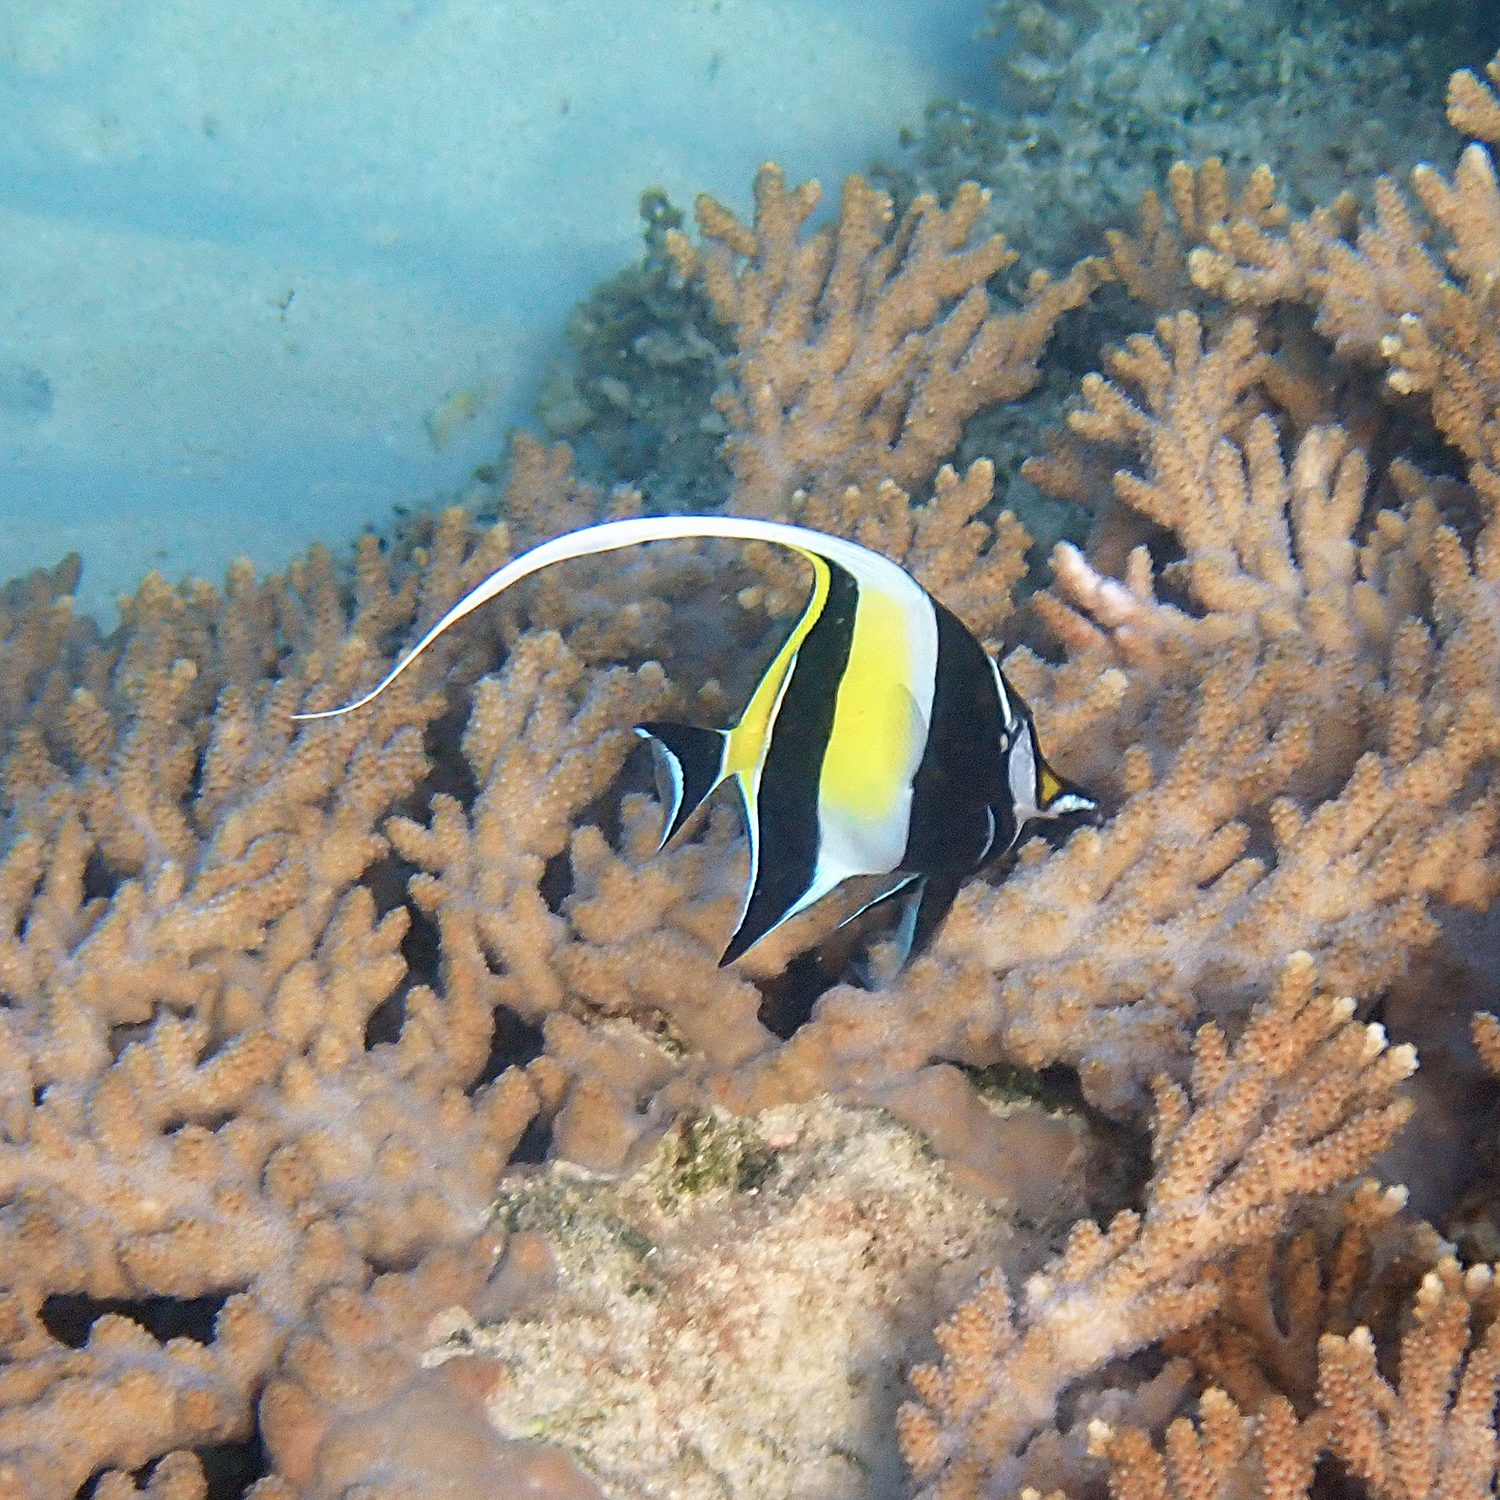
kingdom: Animalia
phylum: Chordata
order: Perciformes
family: Zanclidae
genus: Zanclus
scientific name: Zanclus cornutus
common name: Moorish idol
